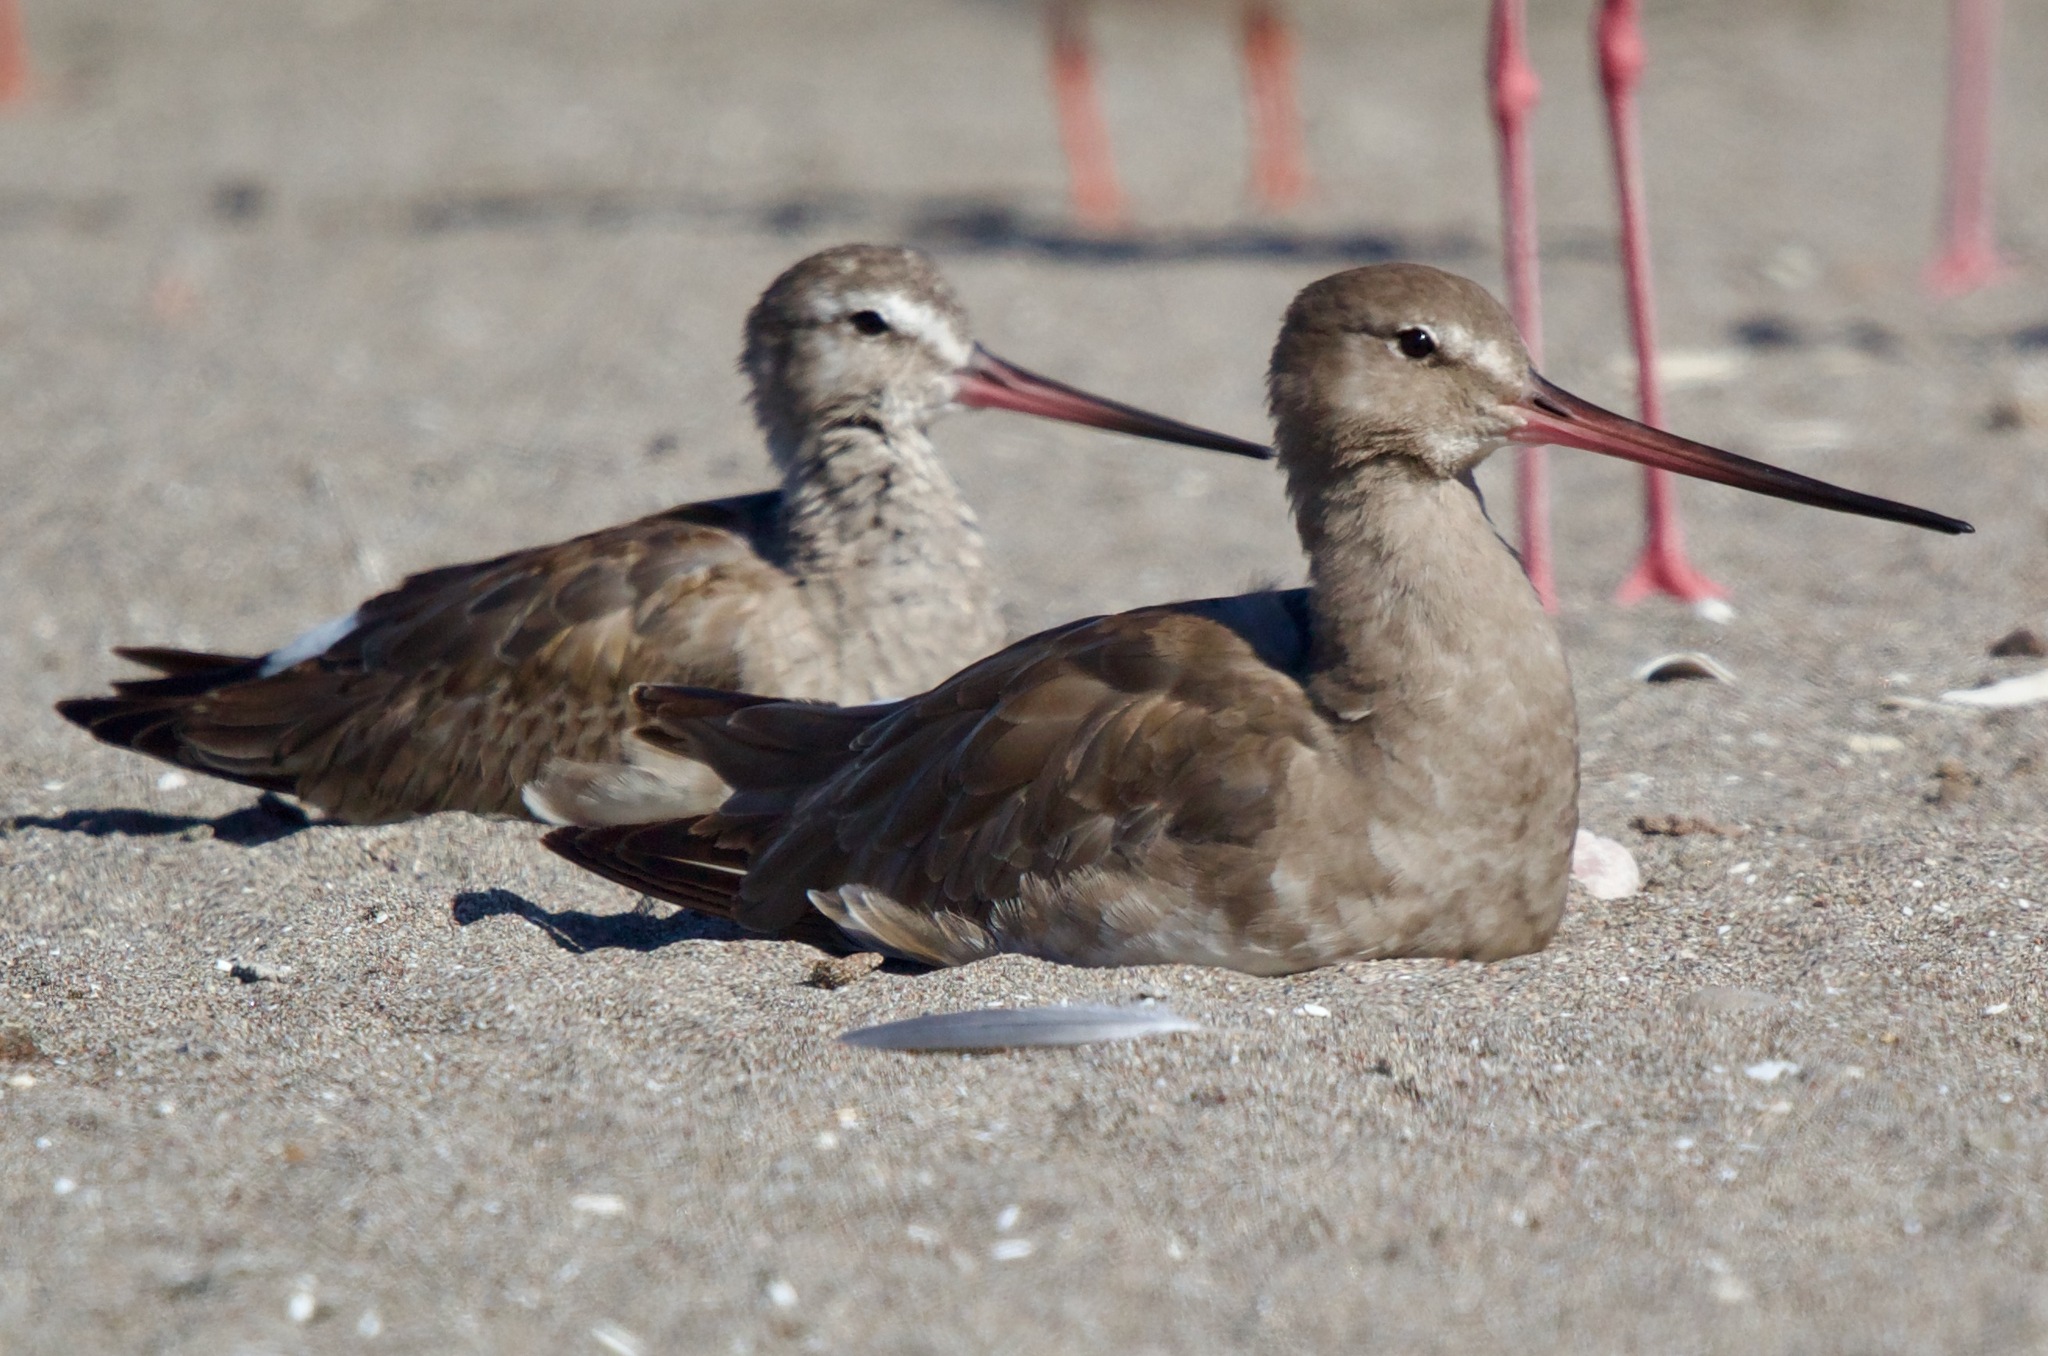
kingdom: Animalia
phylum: Chordata
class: Aves
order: Charadriiformes
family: Scolopacidae
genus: Limosa
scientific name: Limosa haemastica
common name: Hudsonian godwit
